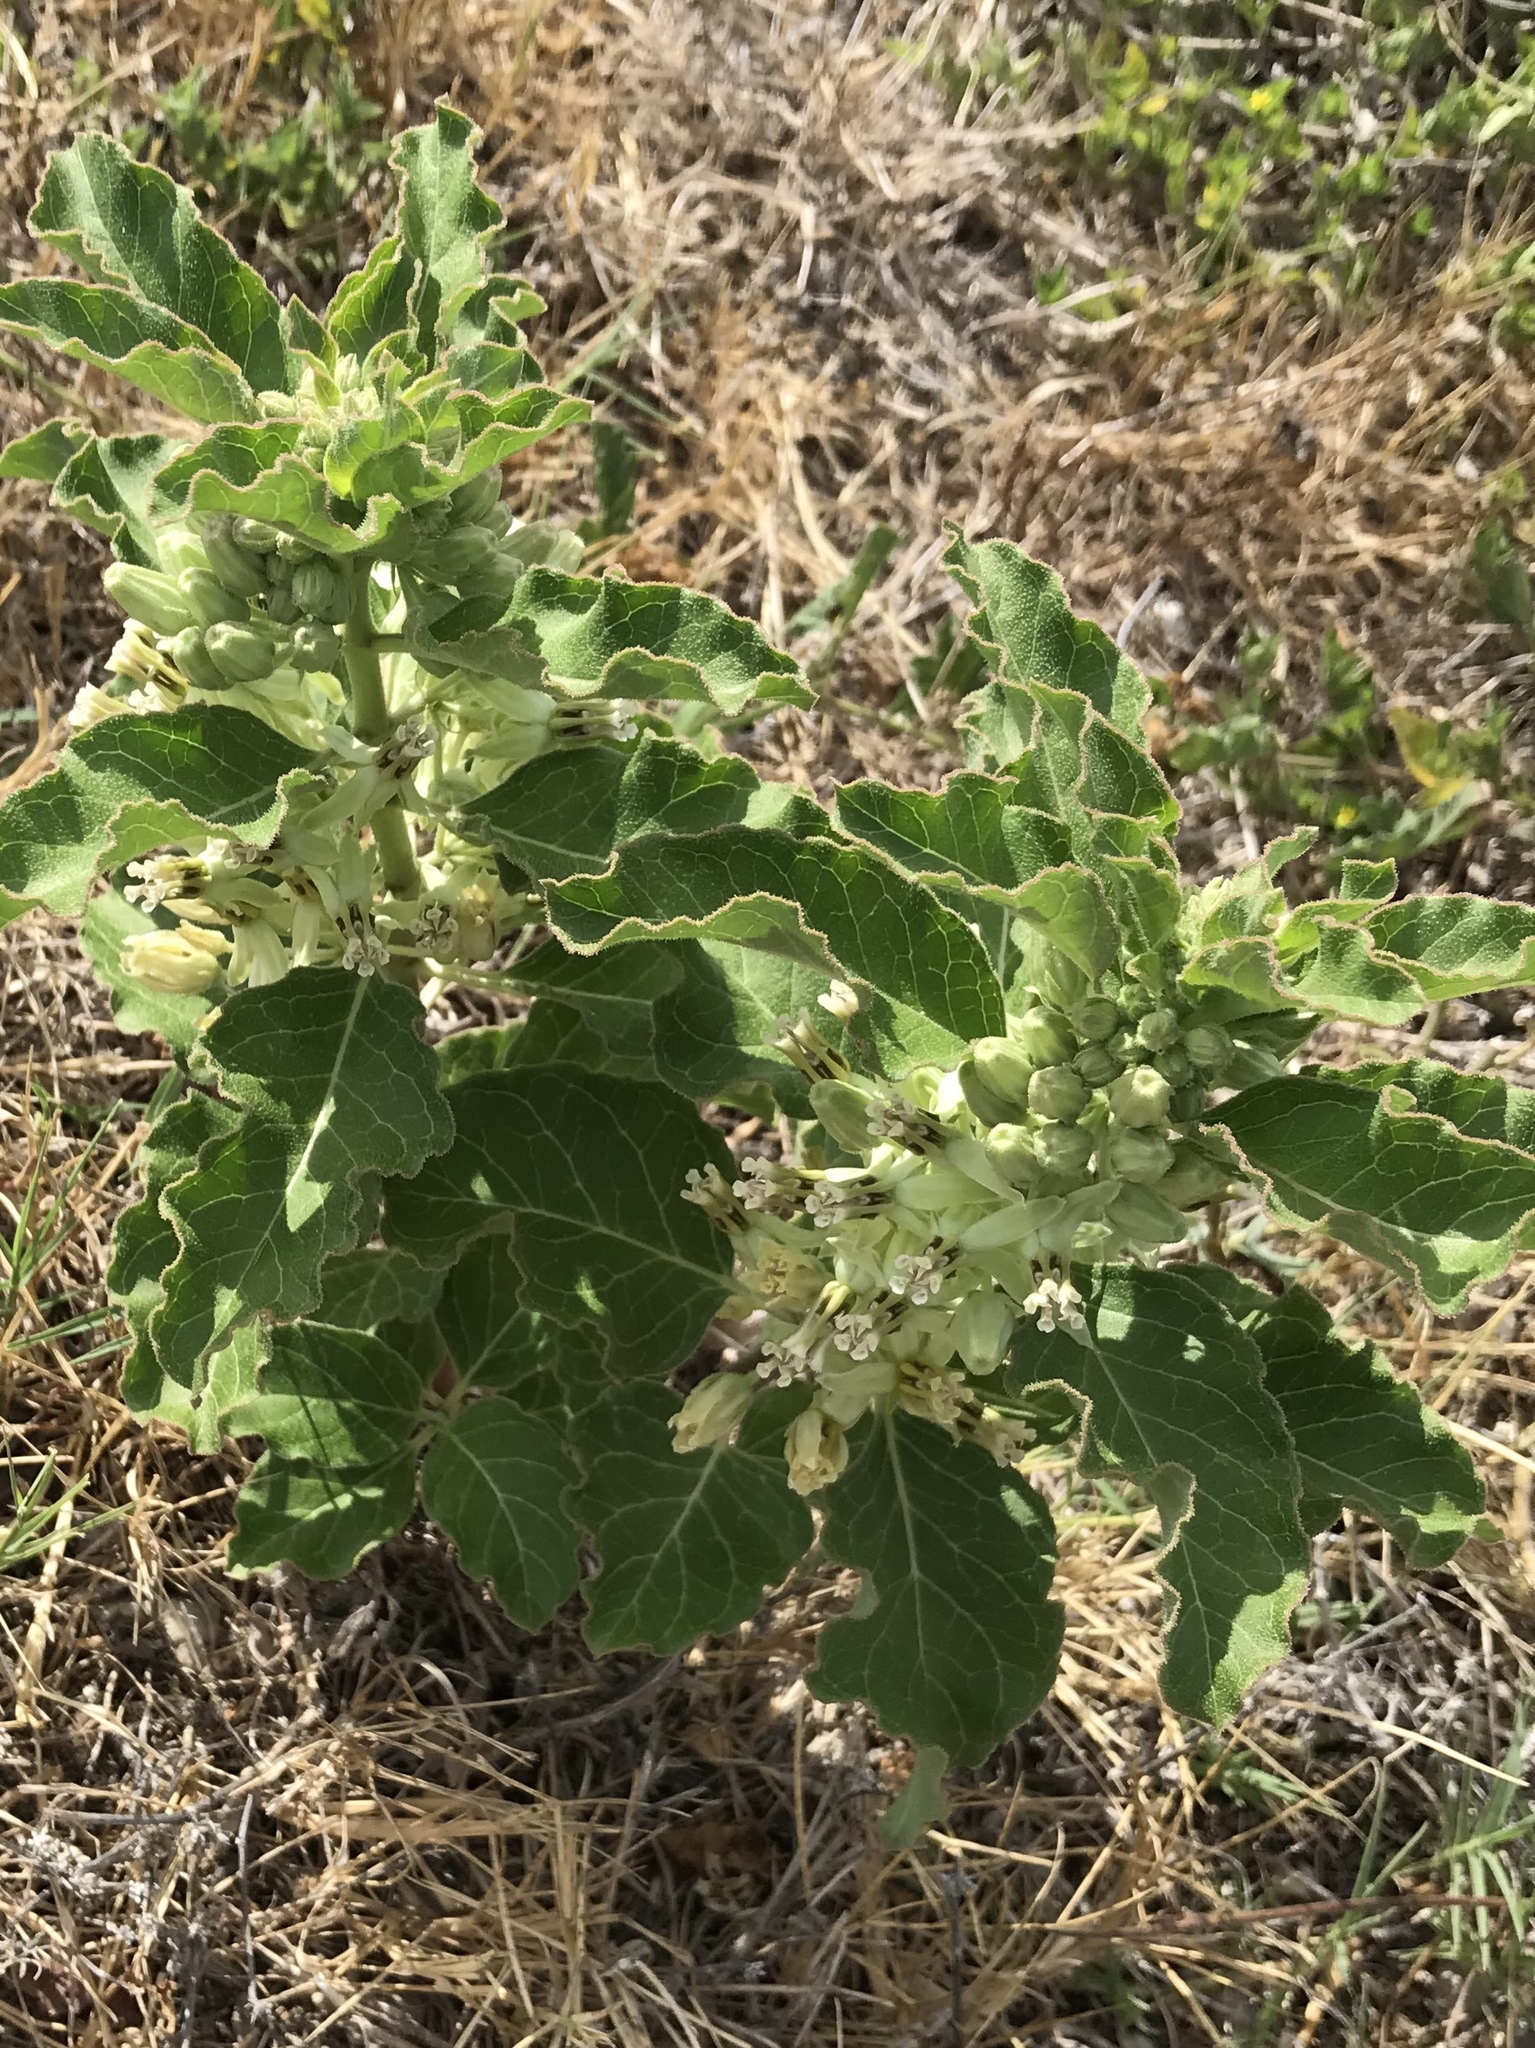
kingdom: Plantae
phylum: Tracheophyta
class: Magnoliopsida
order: Gentianales
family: Apocynaceae
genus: Asclepias
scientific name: Asclepias oenotheroides
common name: Zizotes milkweed
